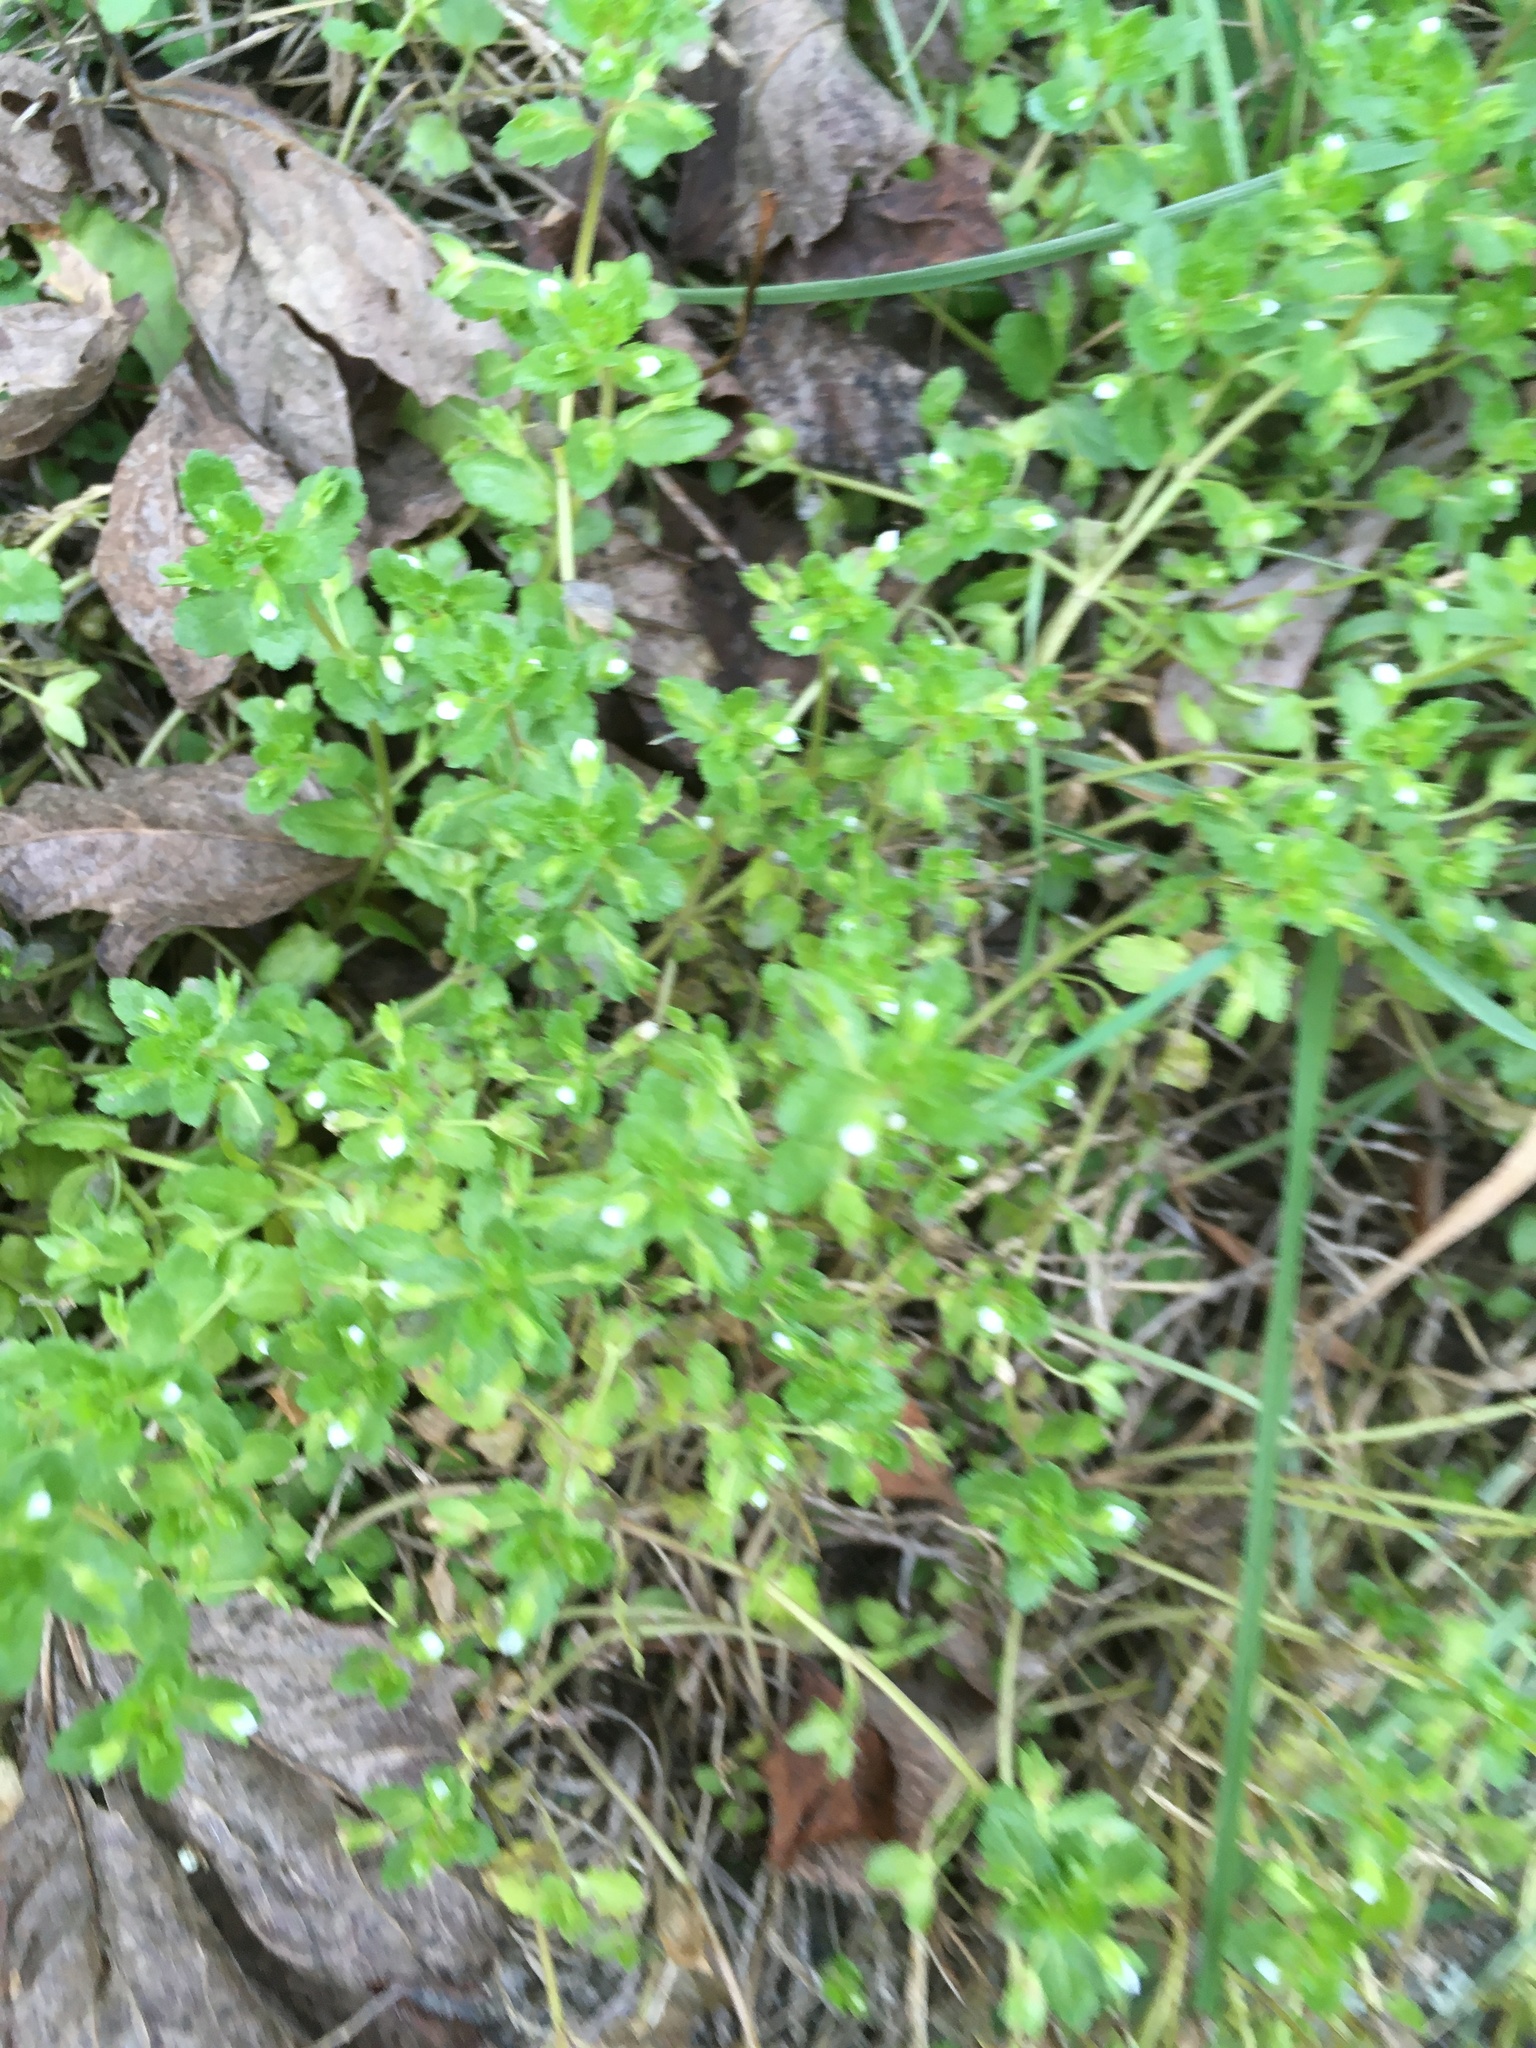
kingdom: Plantae
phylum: Tracheophyta
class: Magnoliopsida
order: Lamiales
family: Plantaginaceae
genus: Veronica
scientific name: Veronica agrestis
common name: Green field-speedwell
